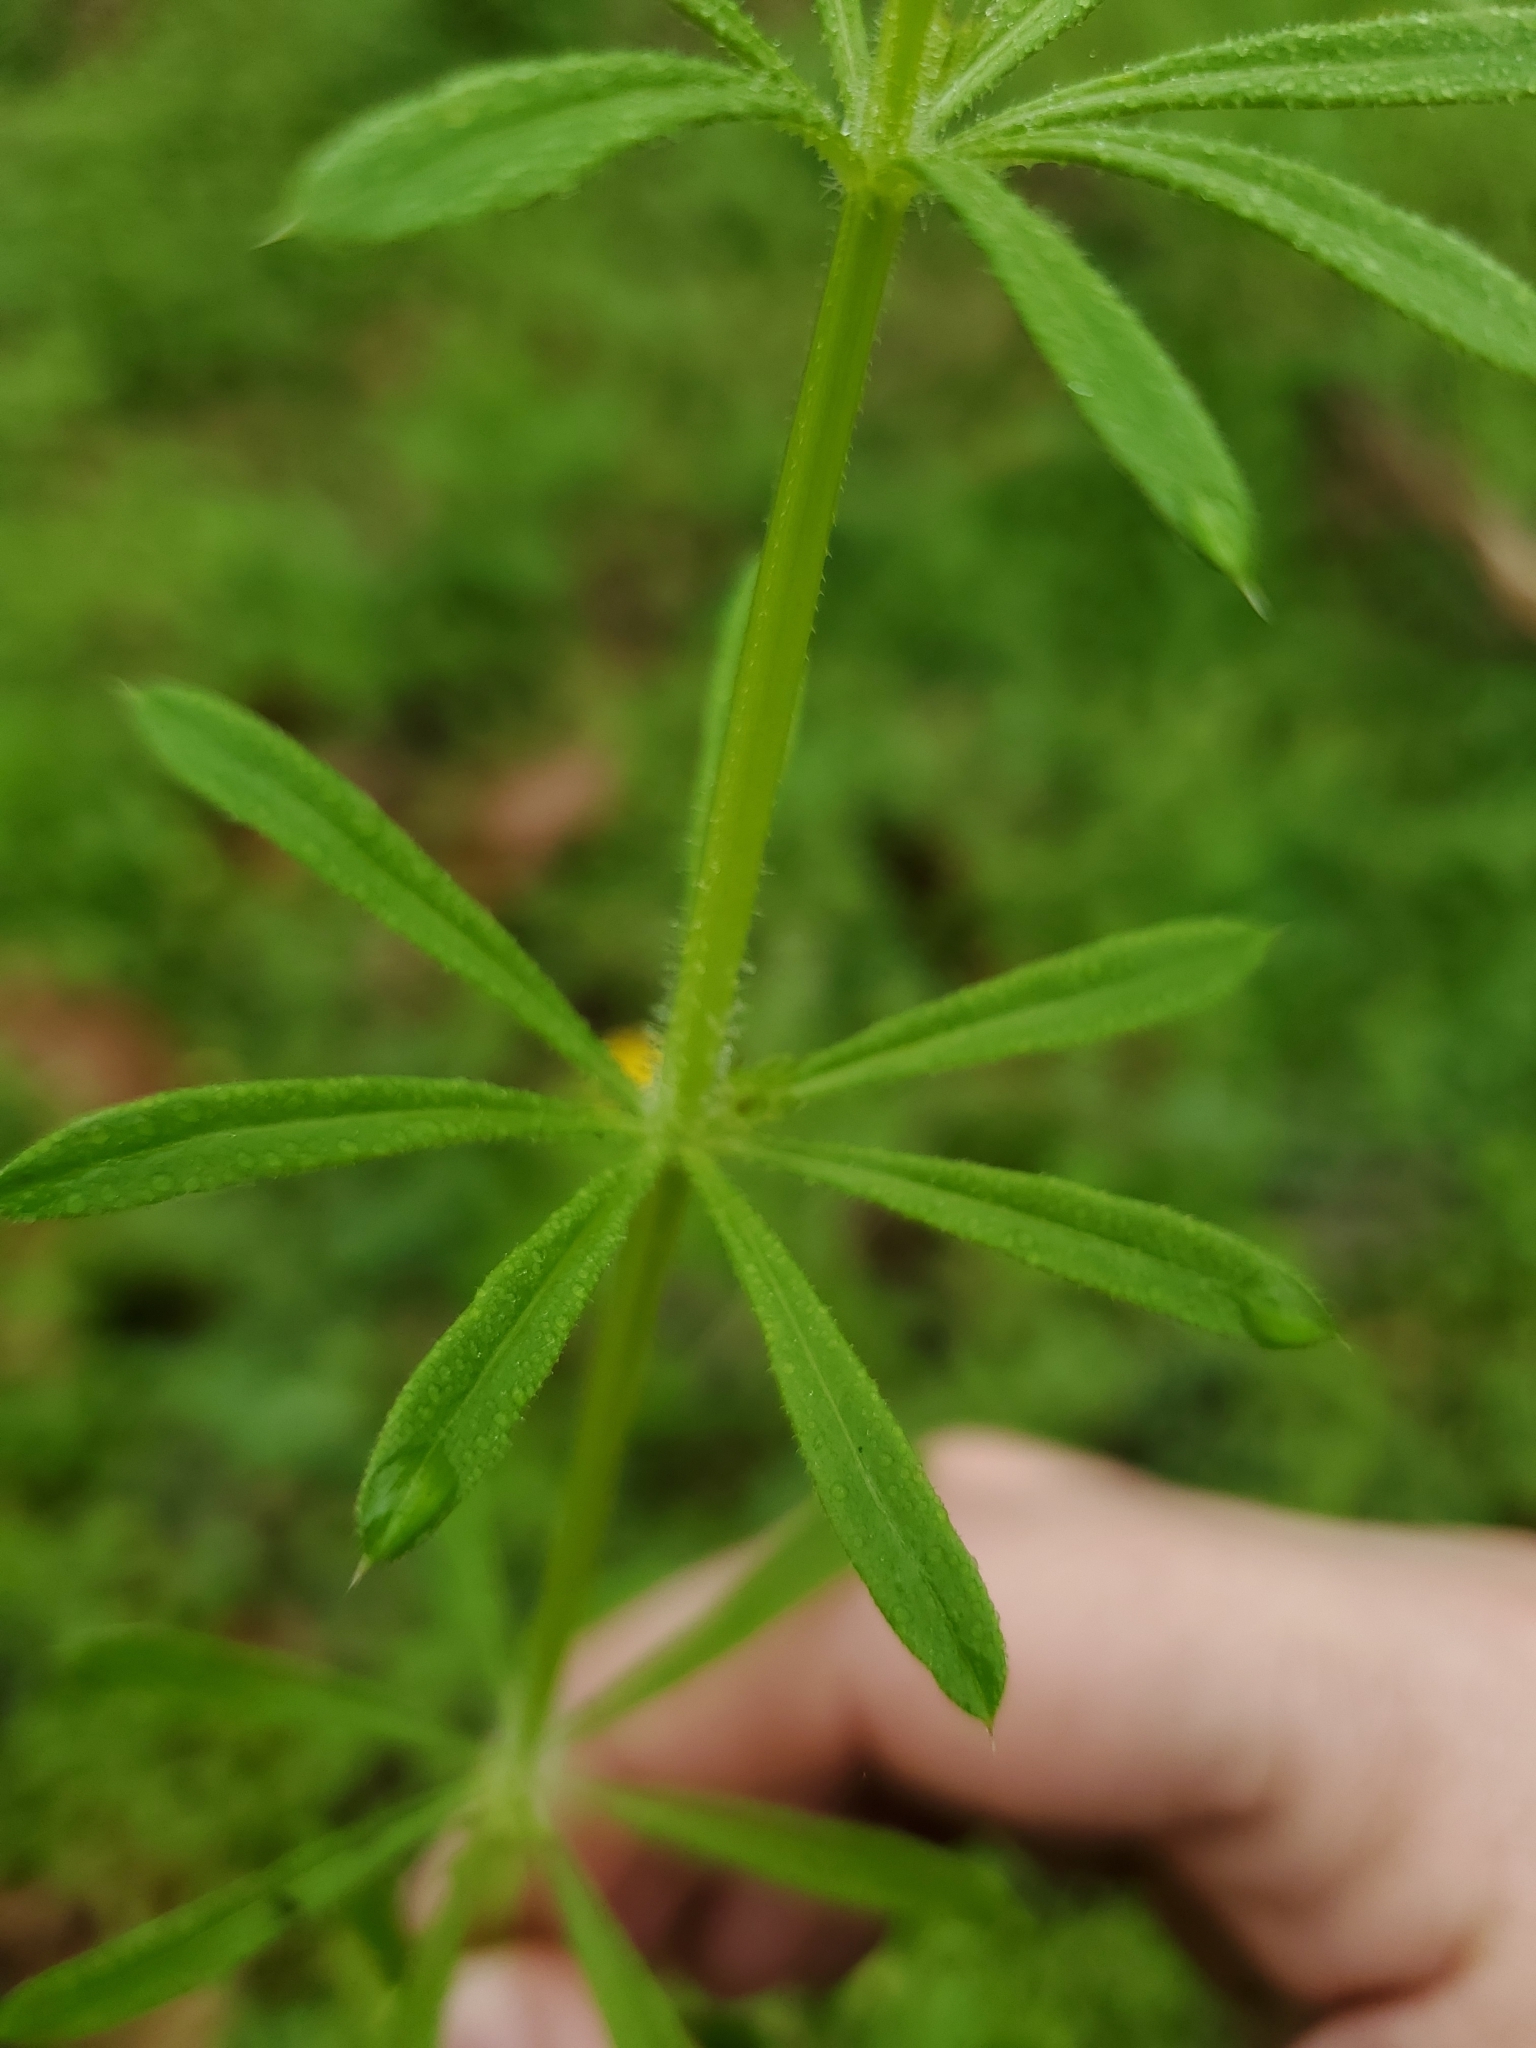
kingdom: Plantae
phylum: Tracheophyta
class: Magnoliopsida
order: Gentianales
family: Rubiaceae
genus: Galium
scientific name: Galium aparine
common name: Cleavers
